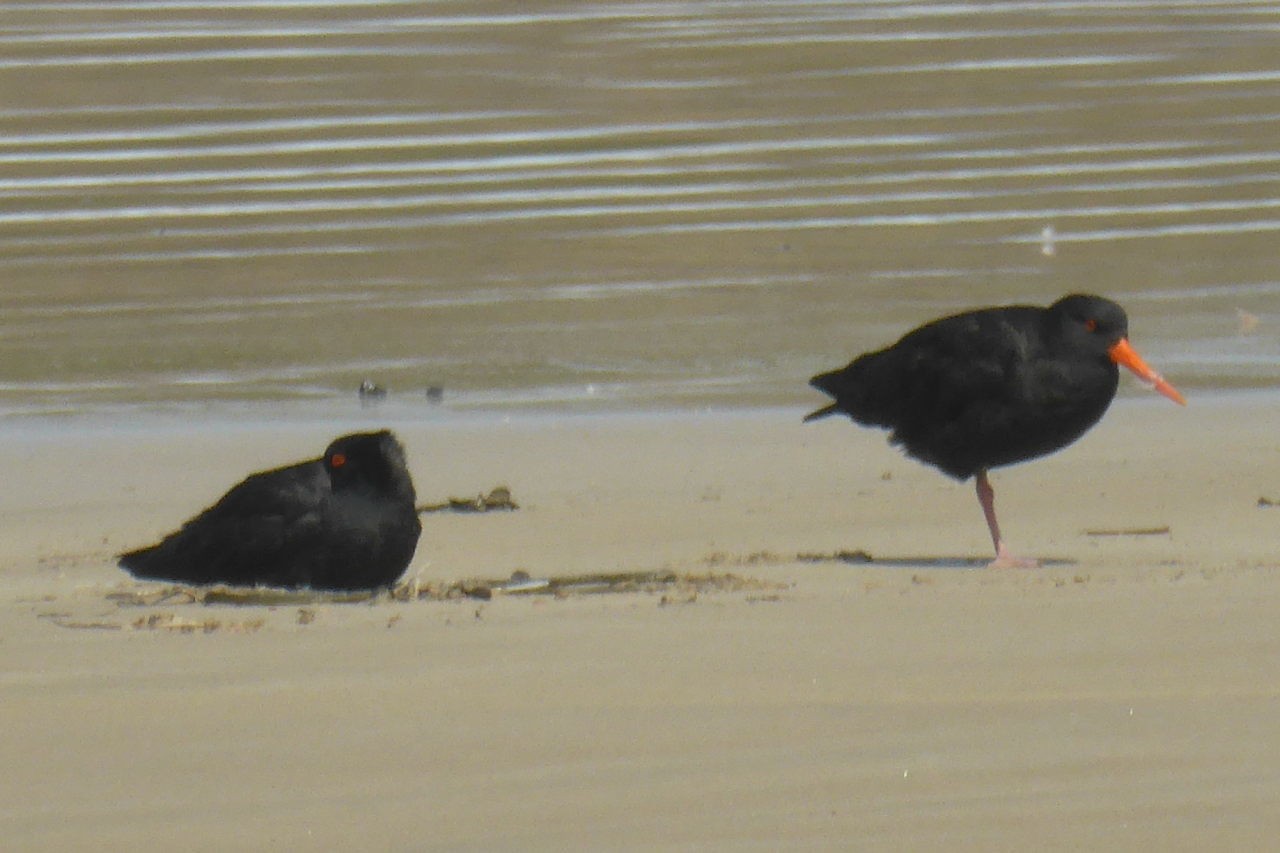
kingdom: Animalia
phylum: Chordata
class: Aves
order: Charadriiformes
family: Haematopodidae
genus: Haematopus
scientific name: Haematopus unicolor
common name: Variable oystercatcher
